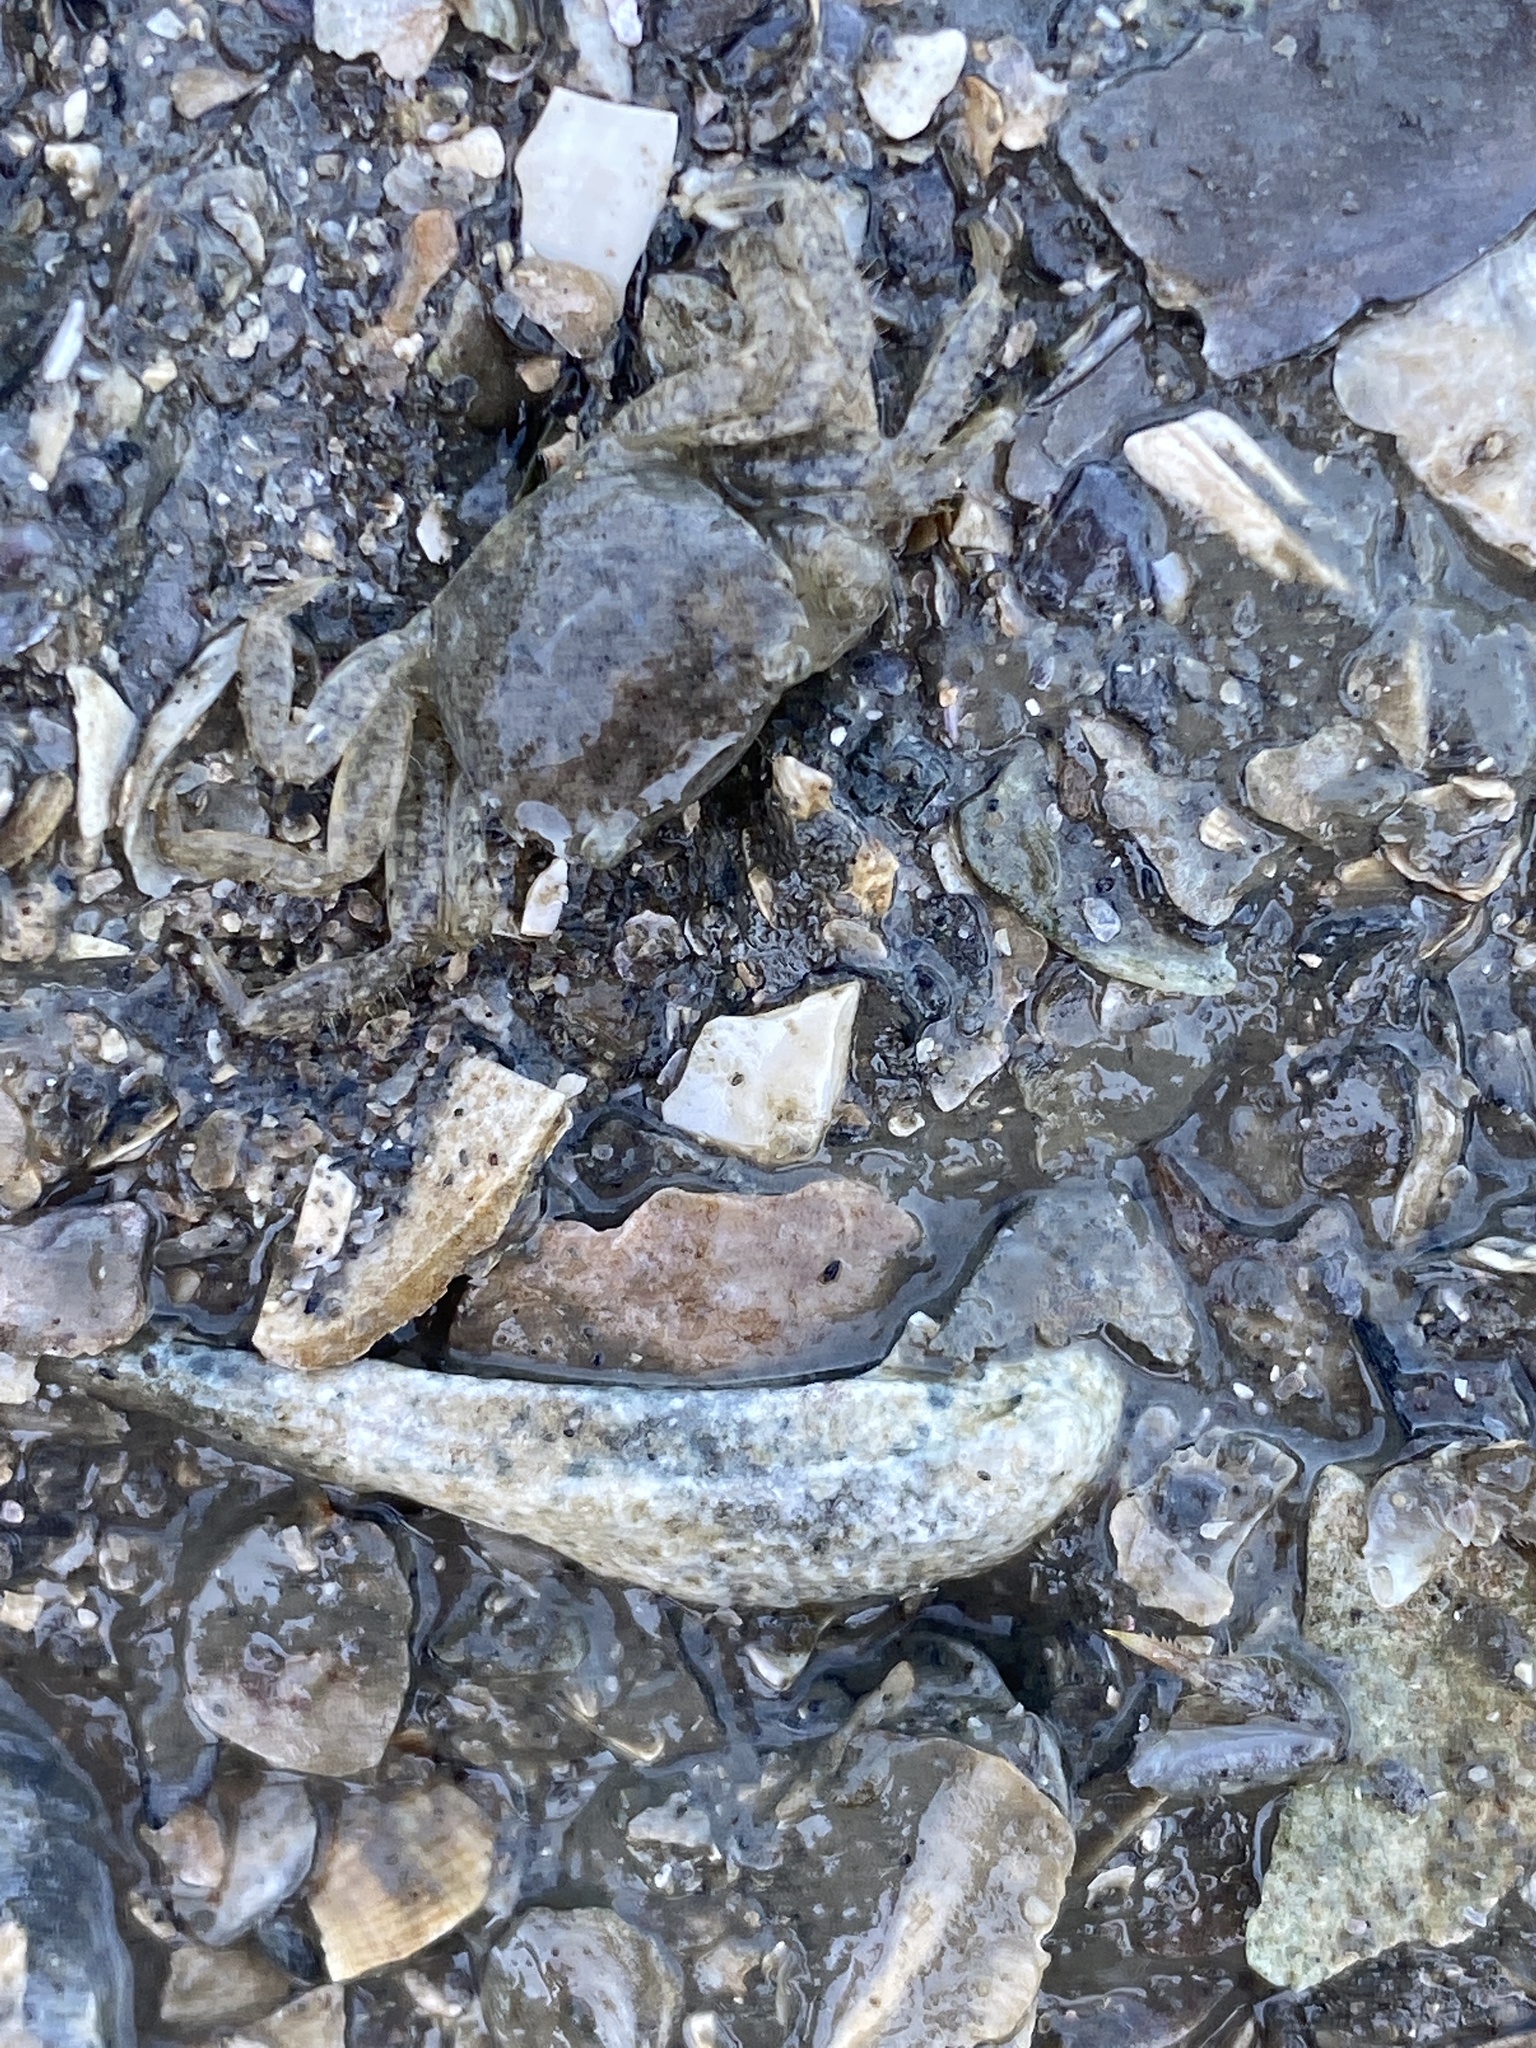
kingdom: Animalia
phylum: Arthropoda
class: Malacostraca
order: Decapoda
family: Varunidae
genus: Hemigrapsus
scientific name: Hemigrapsus oregonensis
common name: Yellow shore crab
